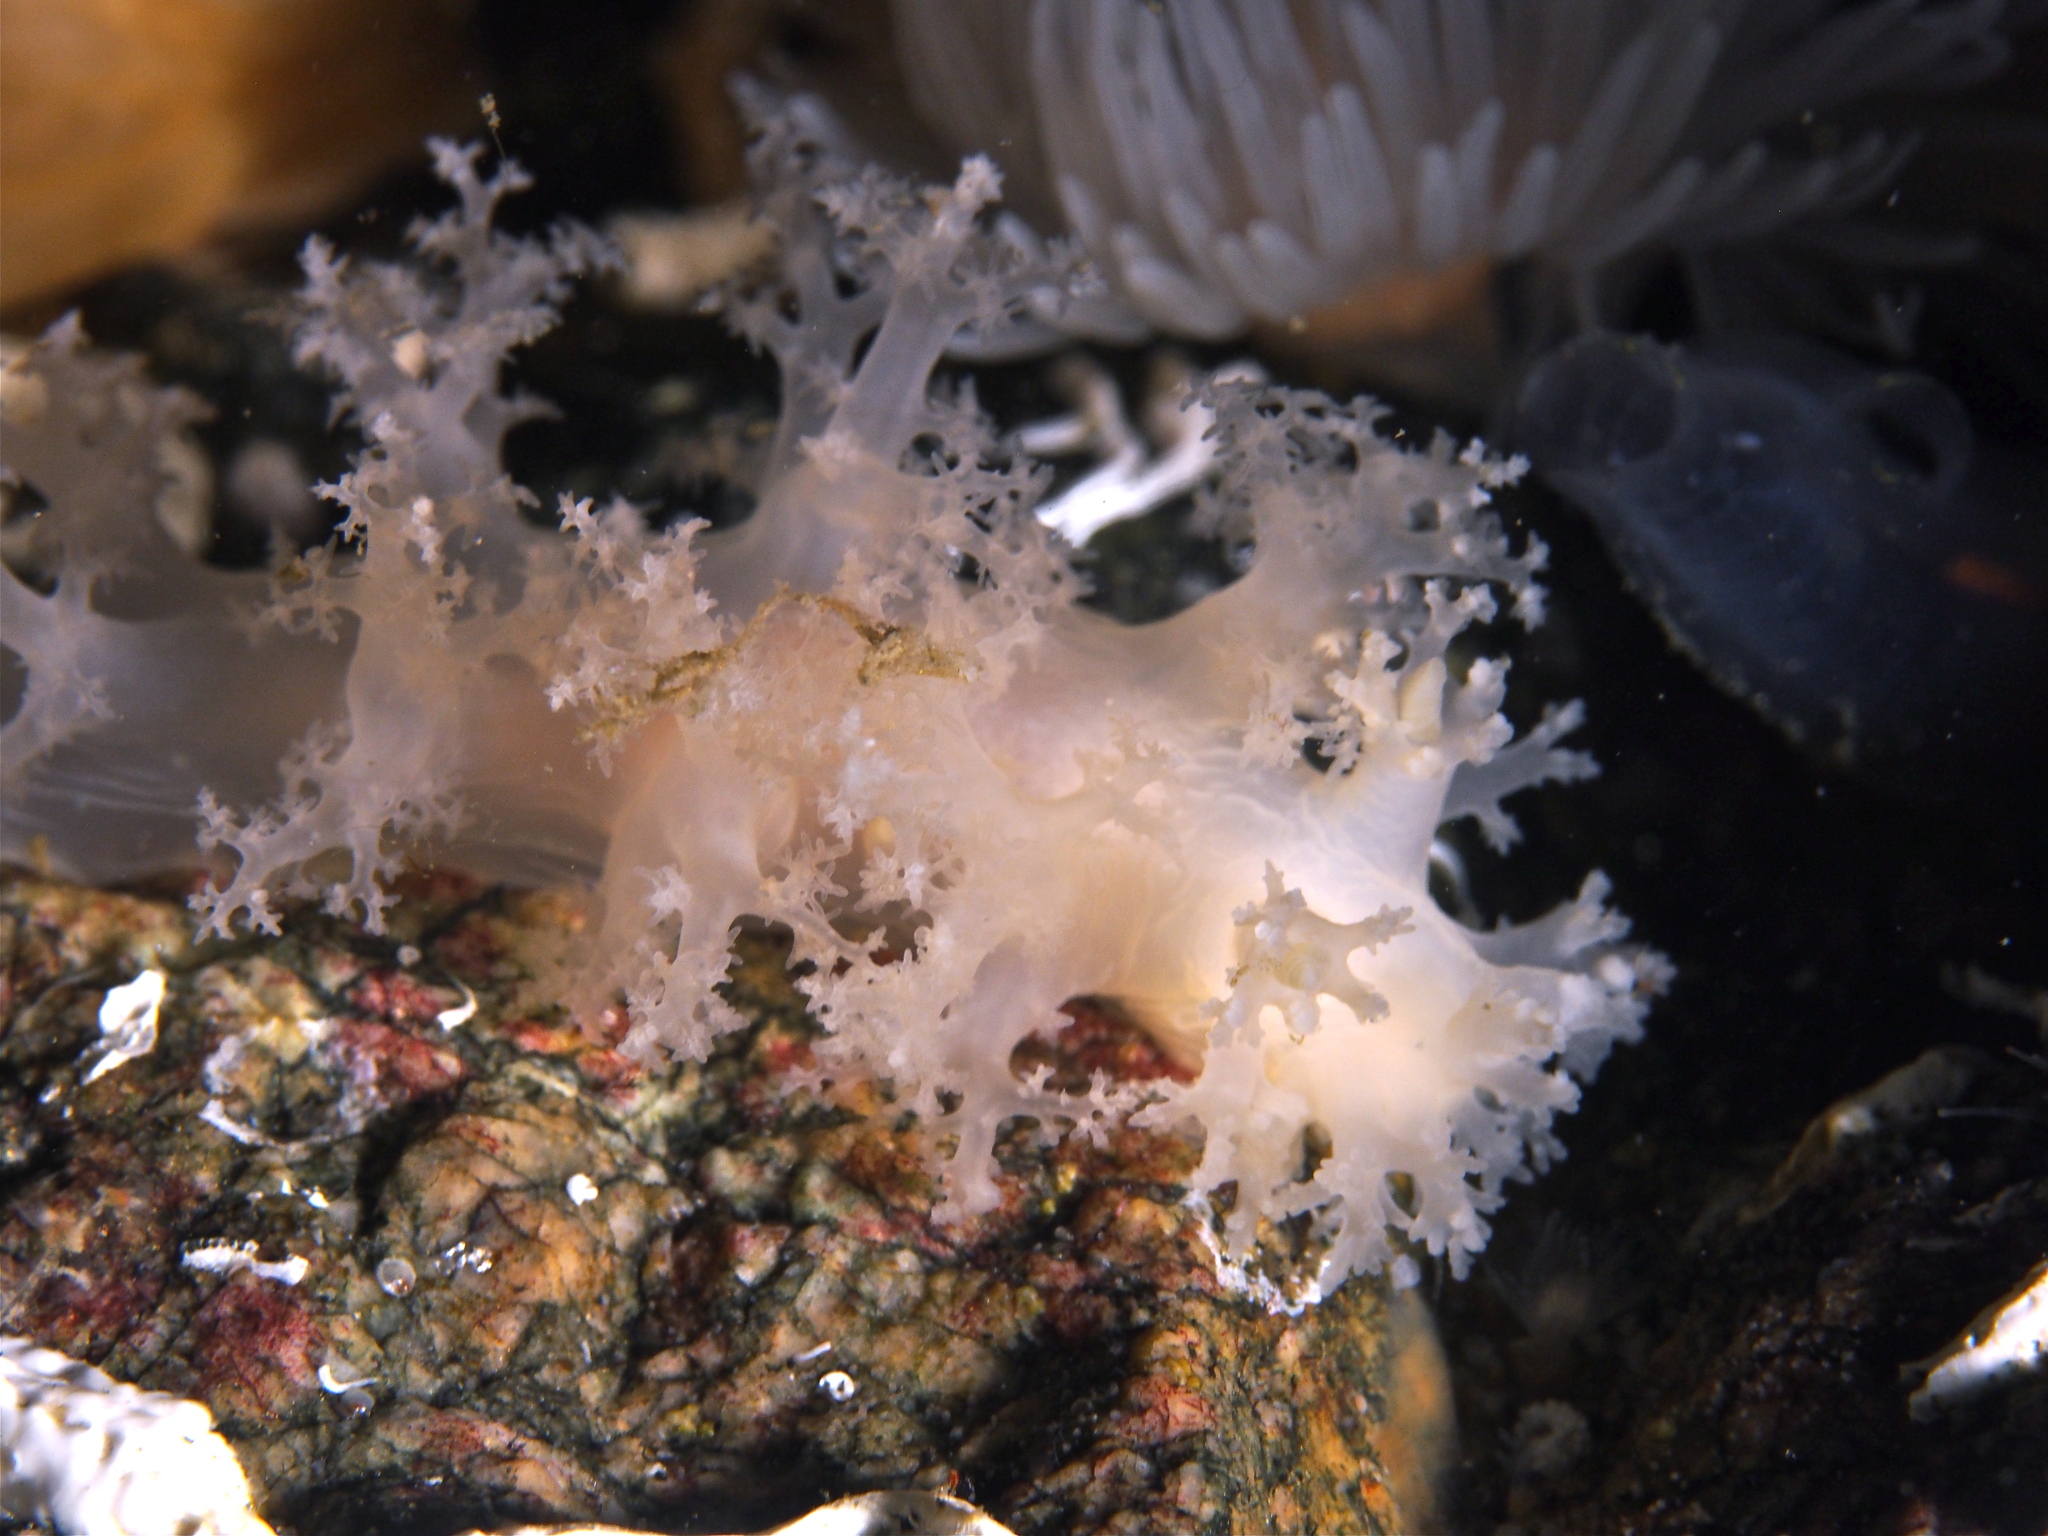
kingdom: Animalia
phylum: Mollusca
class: Gastropoda
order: Nudibranchia
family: Dendronotidae
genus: Dendronotus
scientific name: Dendronotus lacteus
